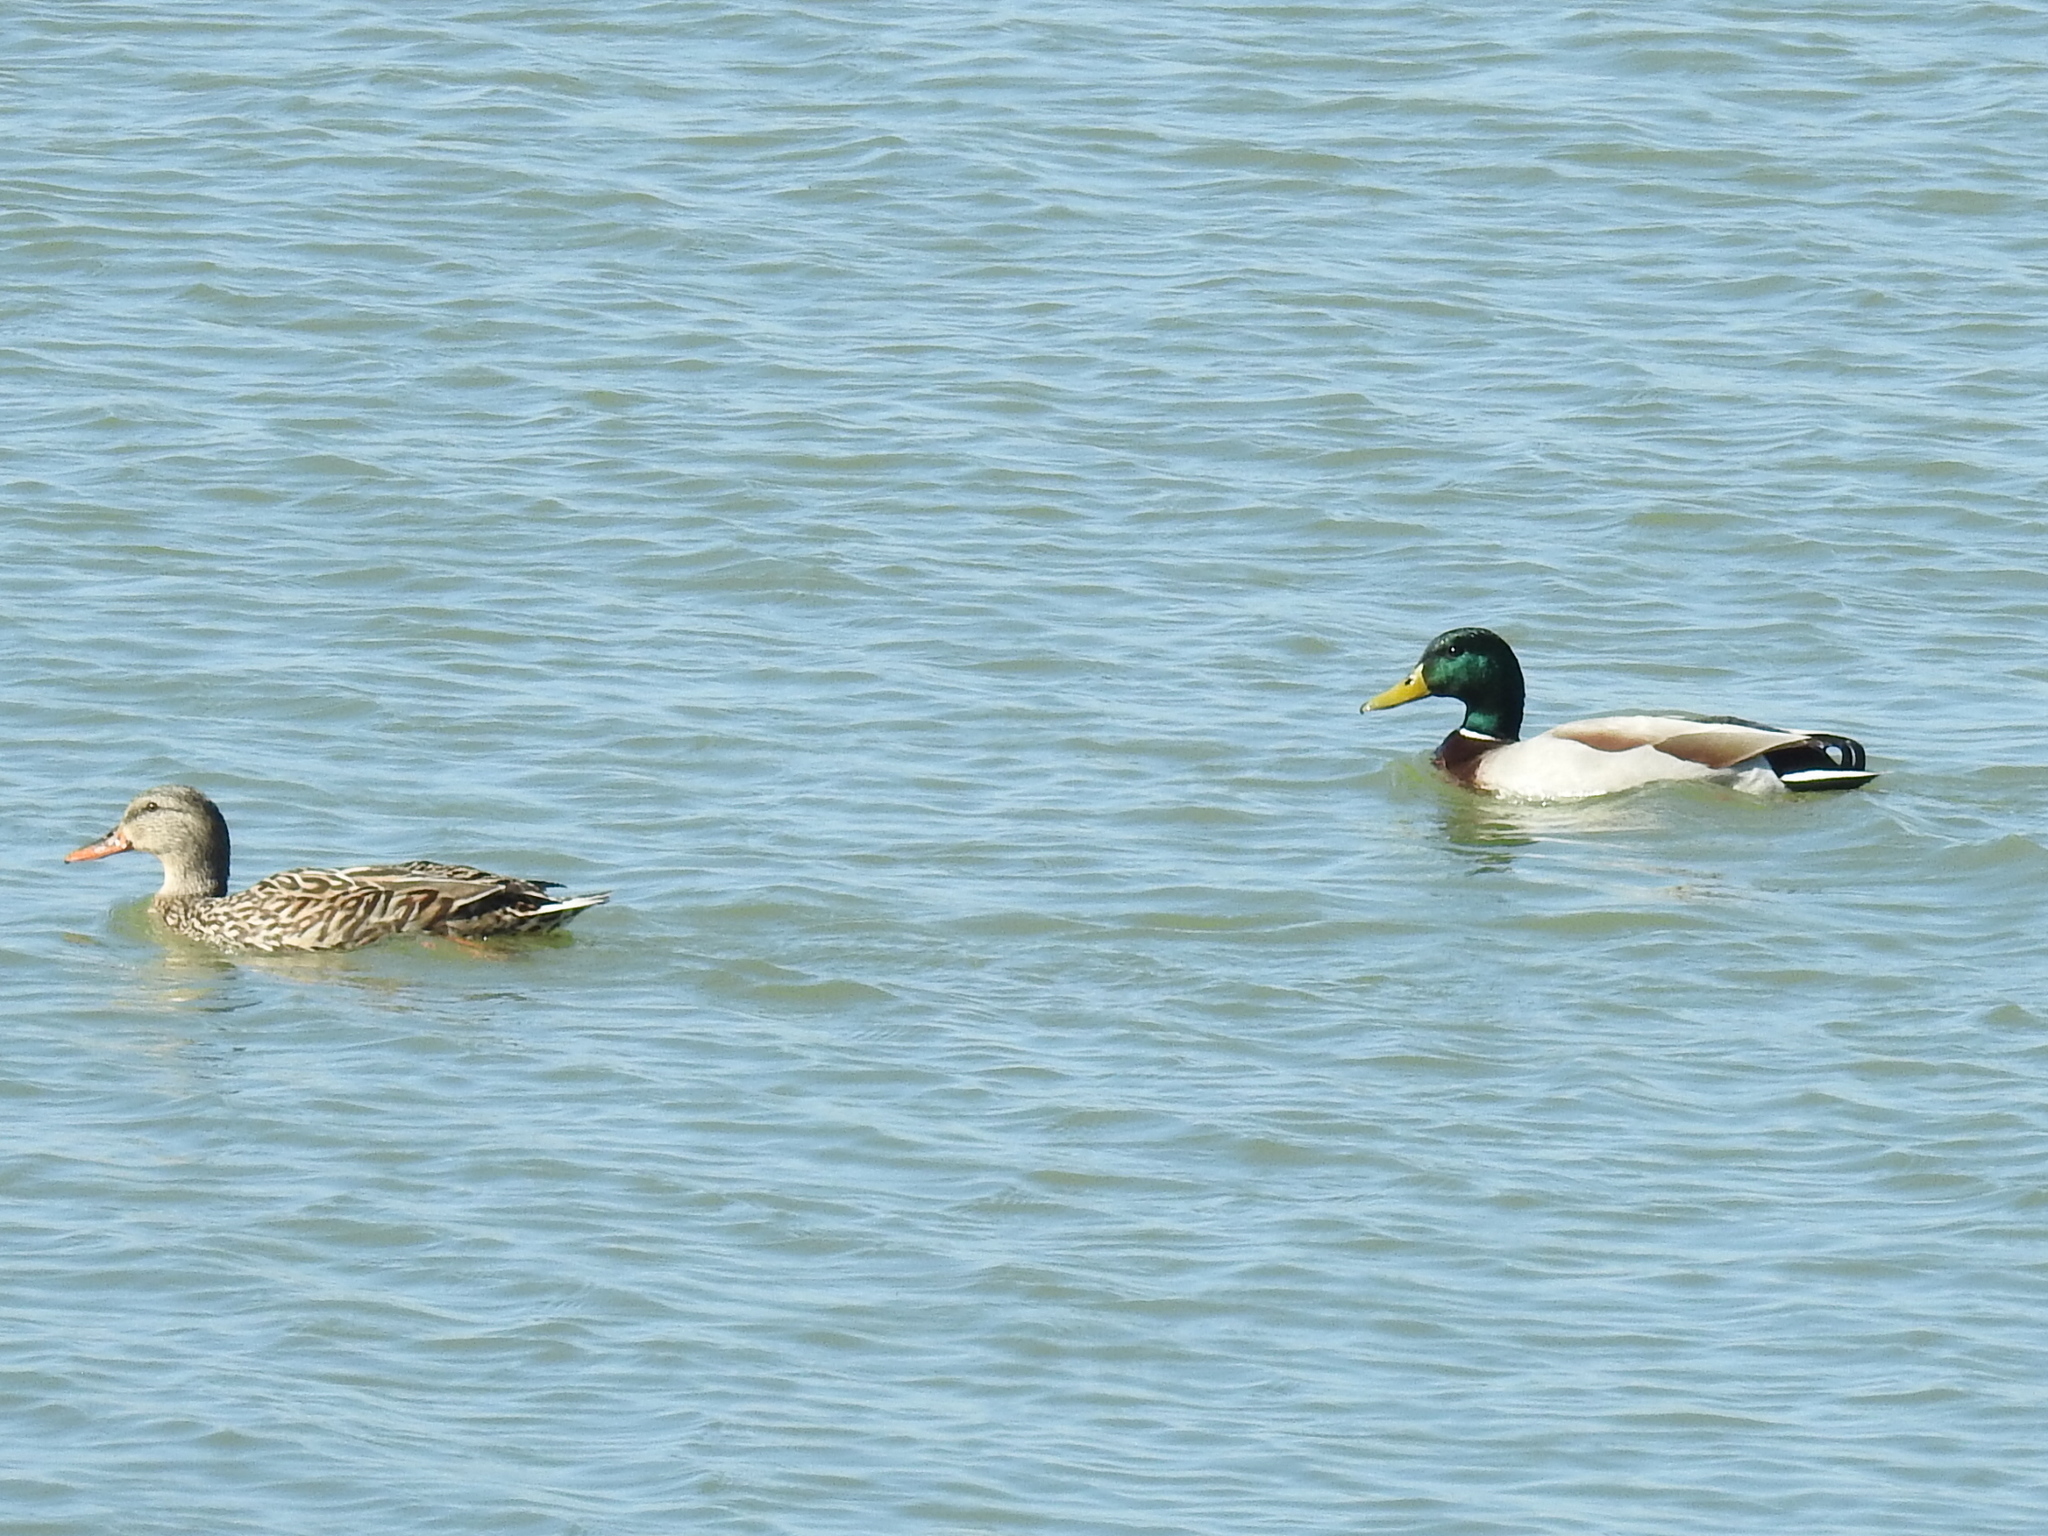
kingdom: Animalia
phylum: Chordata
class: Aves
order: Anseriformes
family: Anatidae
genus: Anas
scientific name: Anas platyrhynchos
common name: Mallard
